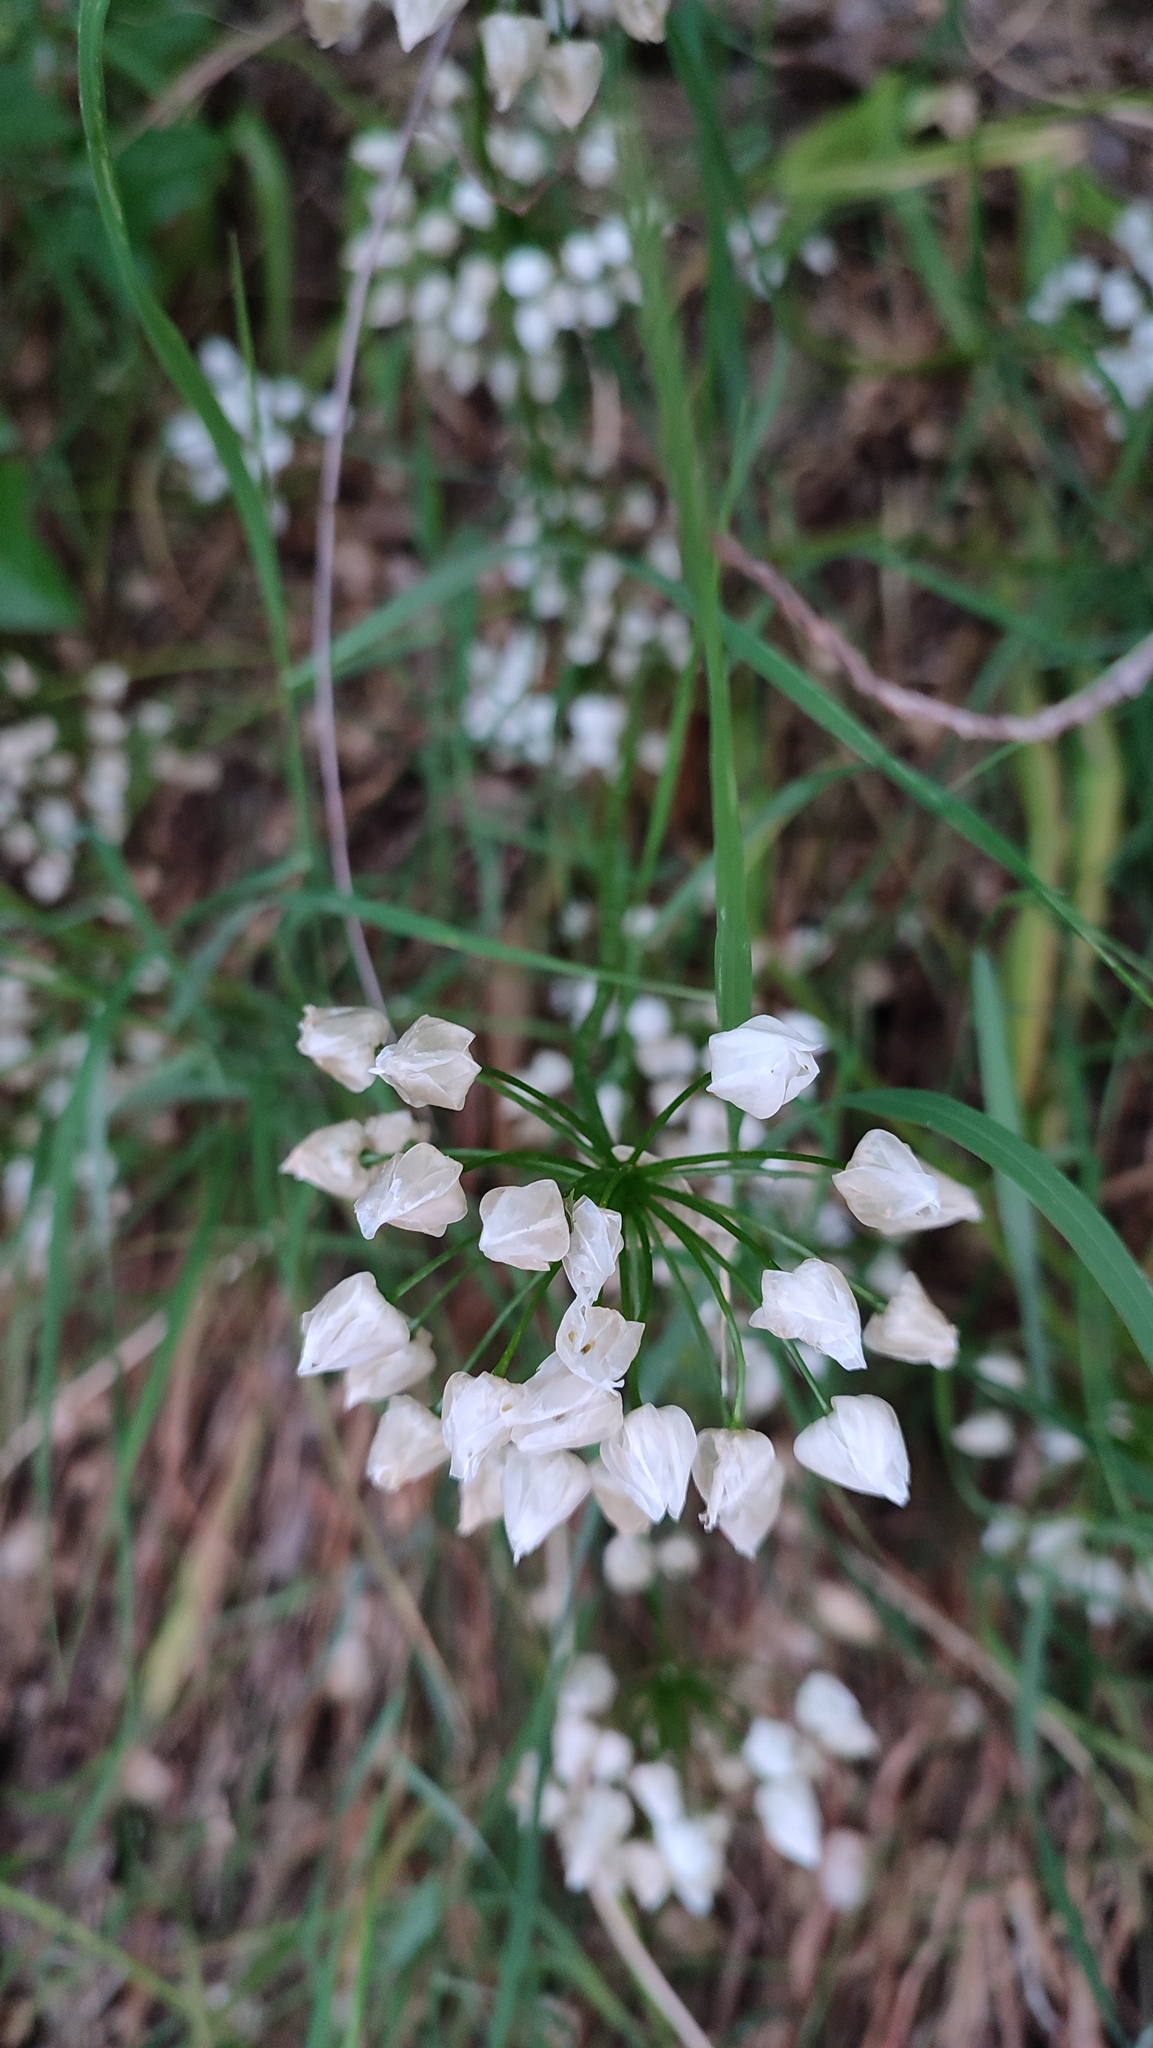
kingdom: Plantae
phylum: Tracheophyta
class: Liliopsida
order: Asparagales
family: Amaryllidaceae
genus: Allium
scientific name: Allium neapolitanum
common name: Neapolitan garlic
